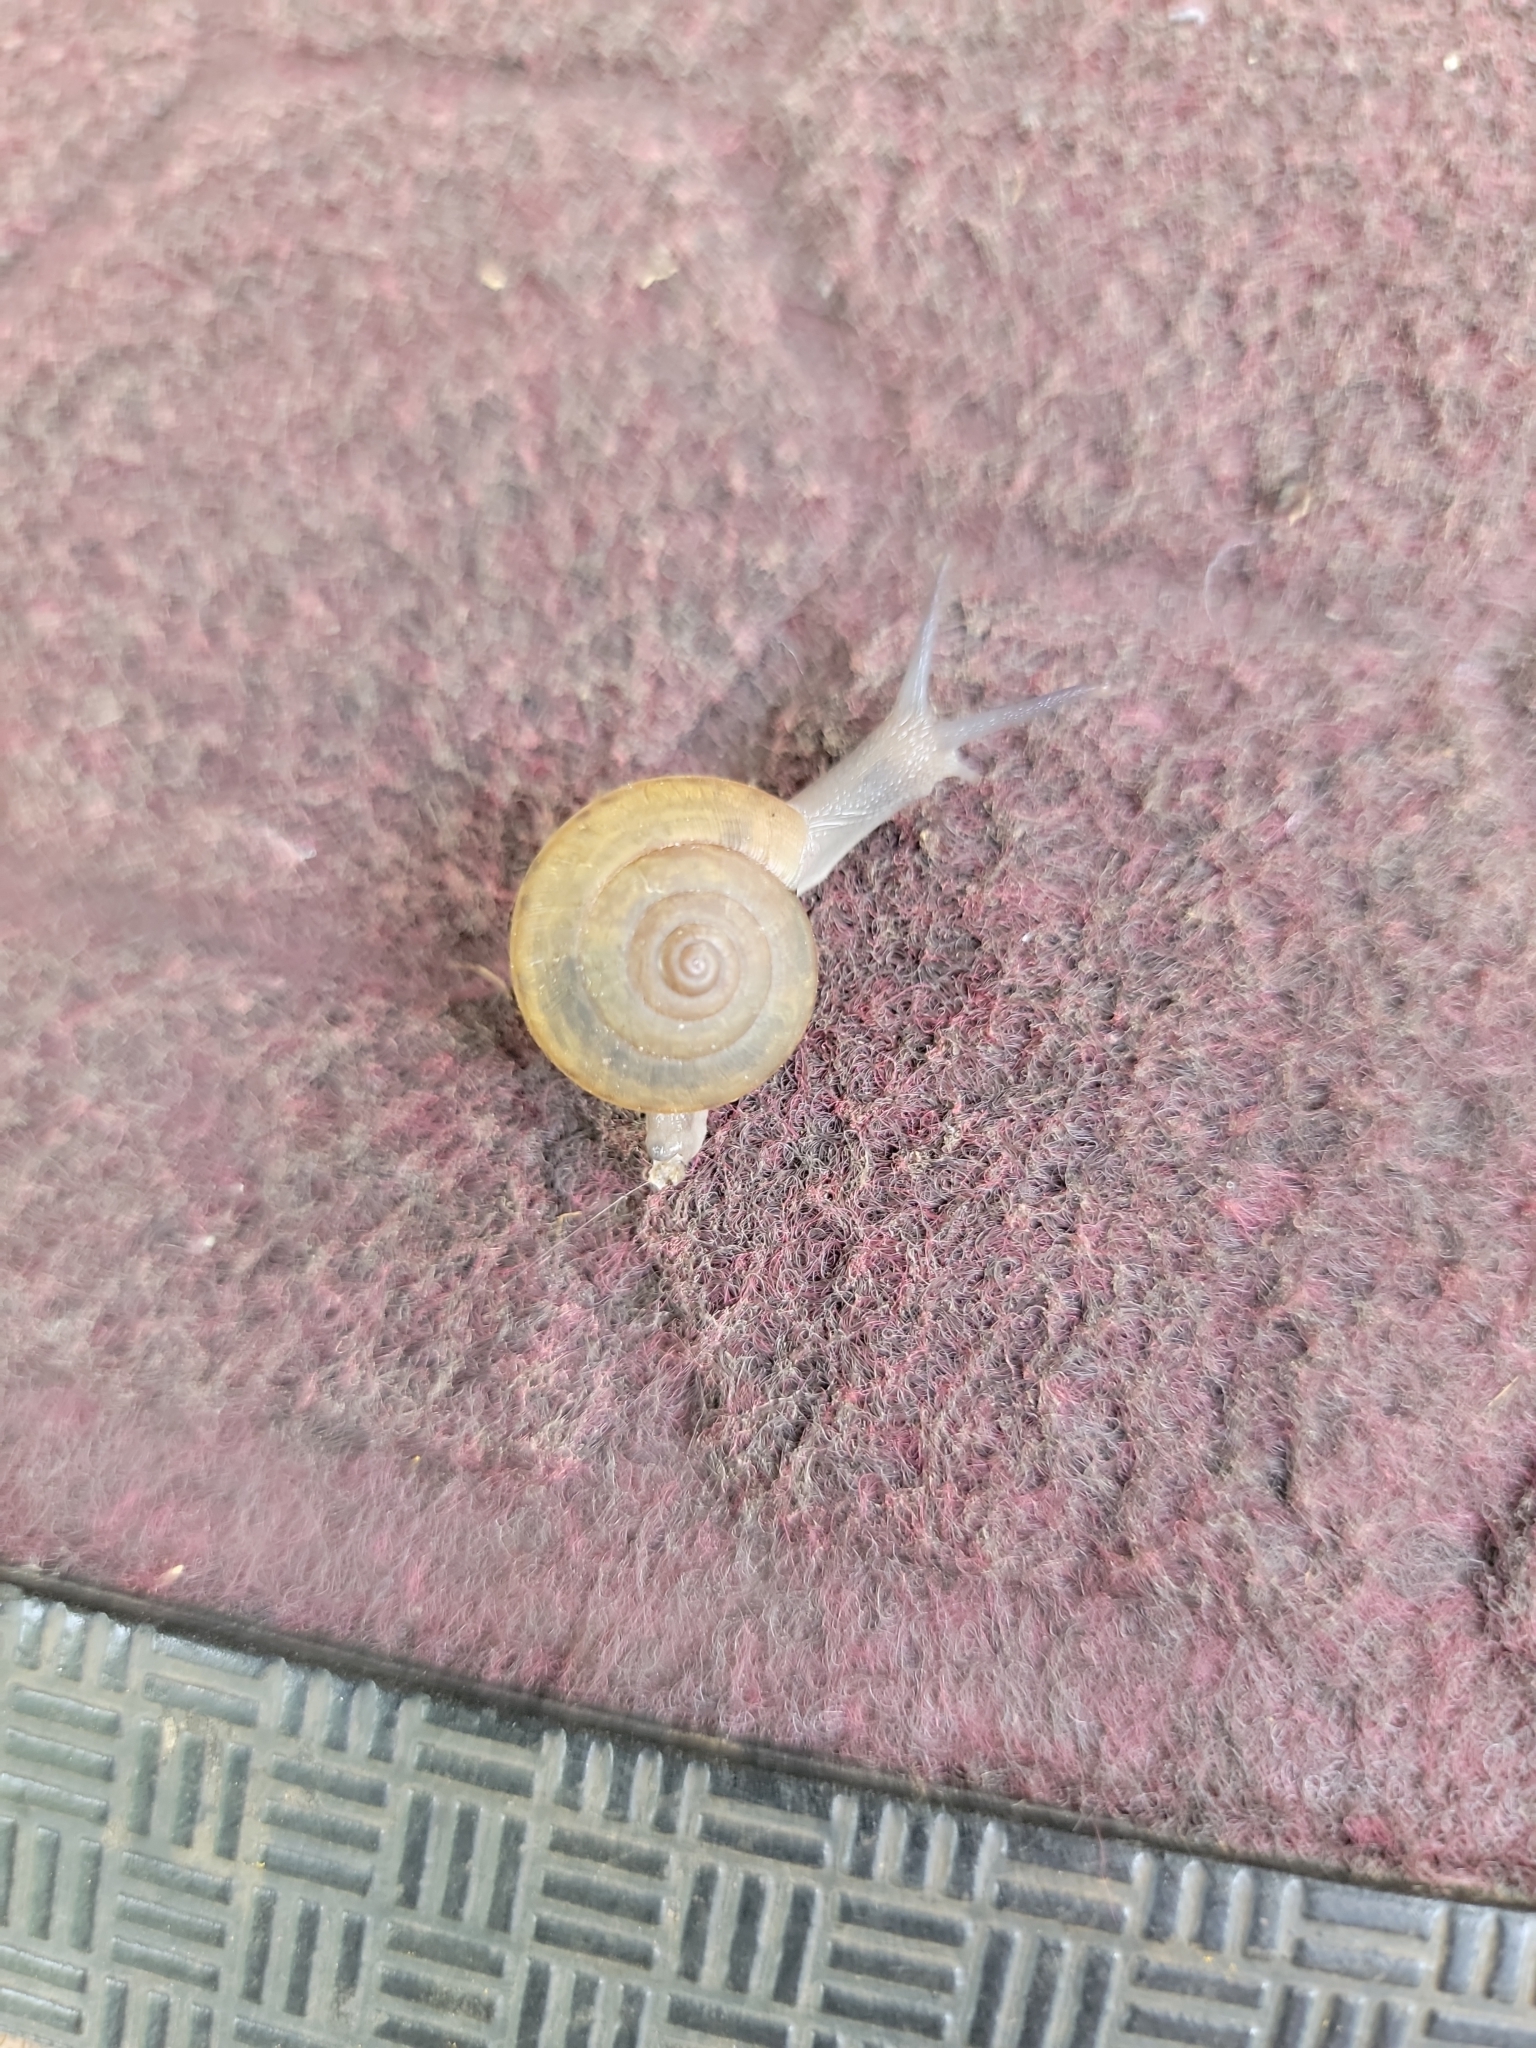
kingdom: Animalia
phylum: Mollusca
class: Gastropoda
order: Stylommatophora
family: Ariophantidae
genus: Sarika
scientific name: Sarika siamensis
